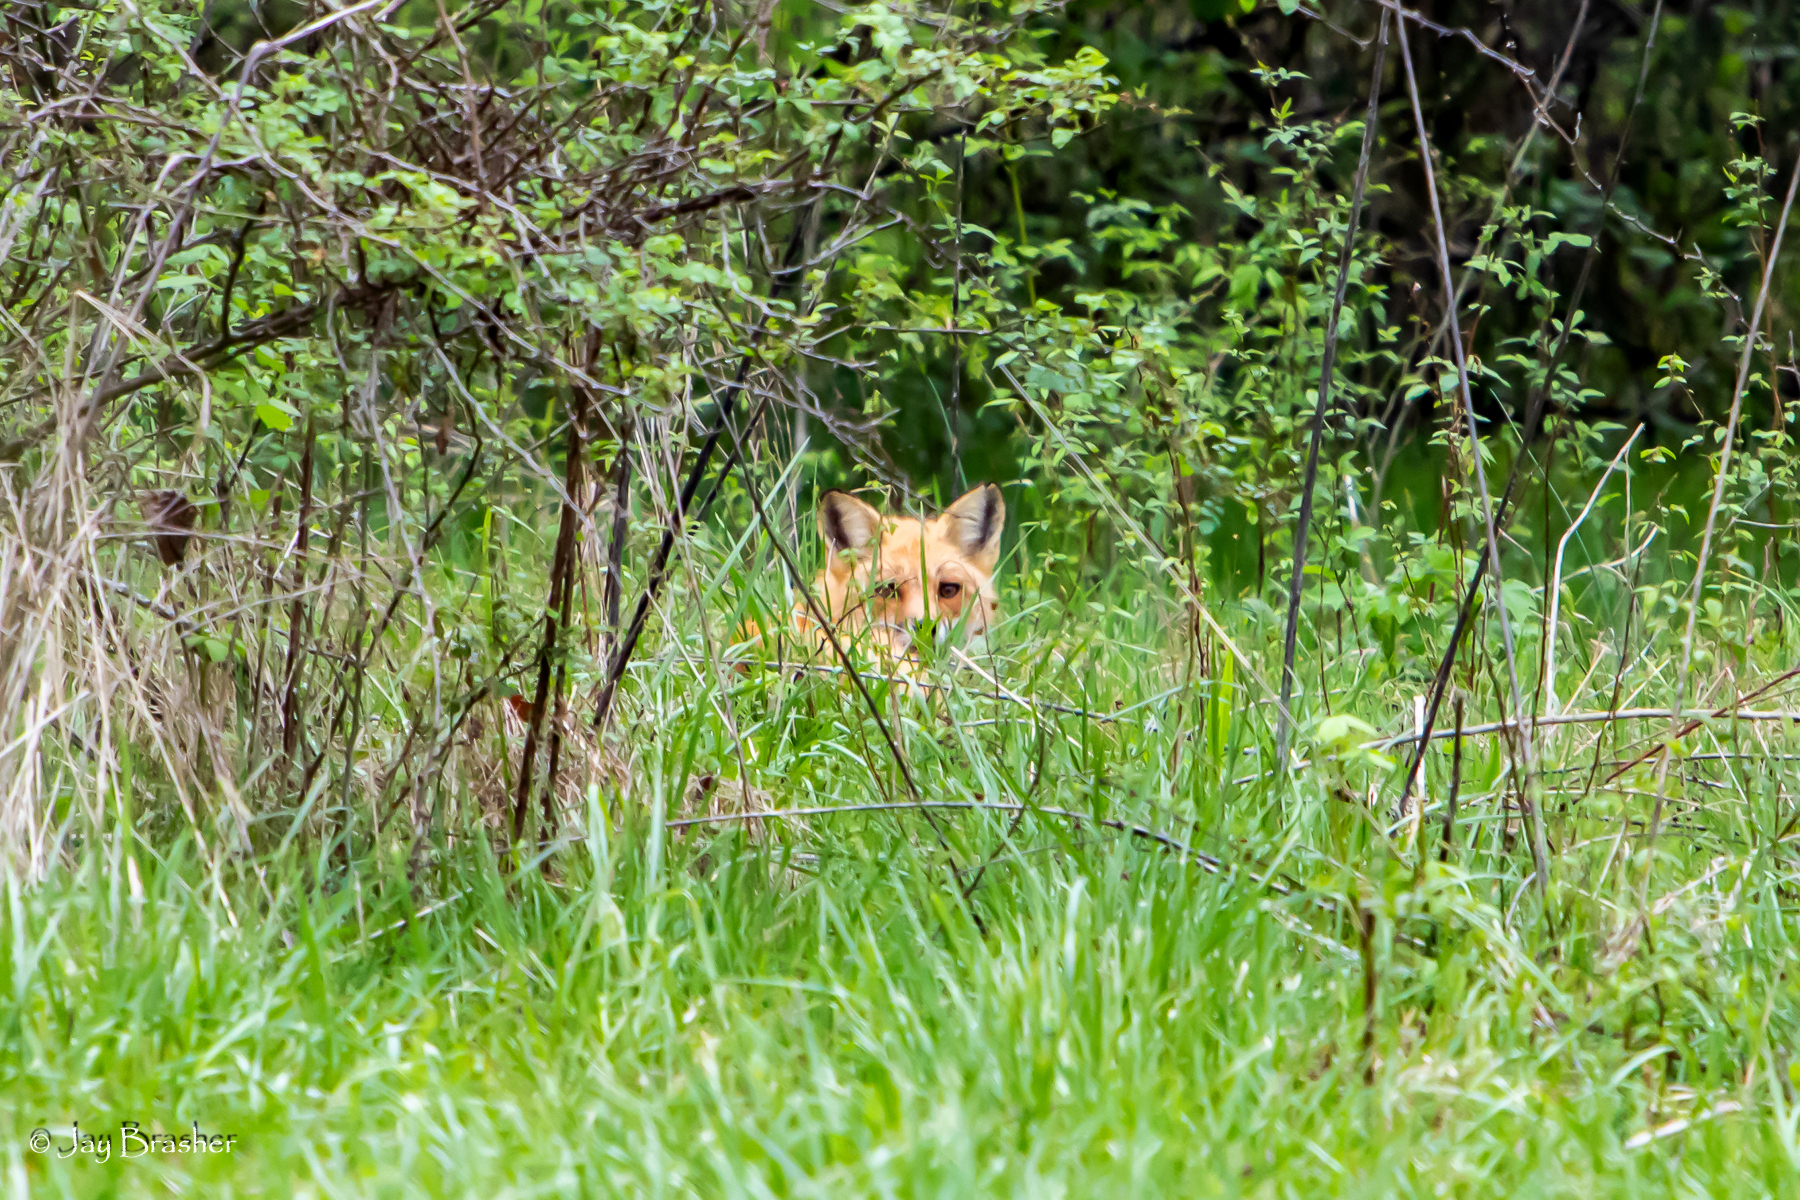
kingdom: Animalia
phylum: Chordata
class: Mammalia
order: Carnivora
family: Canidae
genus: Vulpes
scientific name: Vulpes vulpes
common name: Red fox
